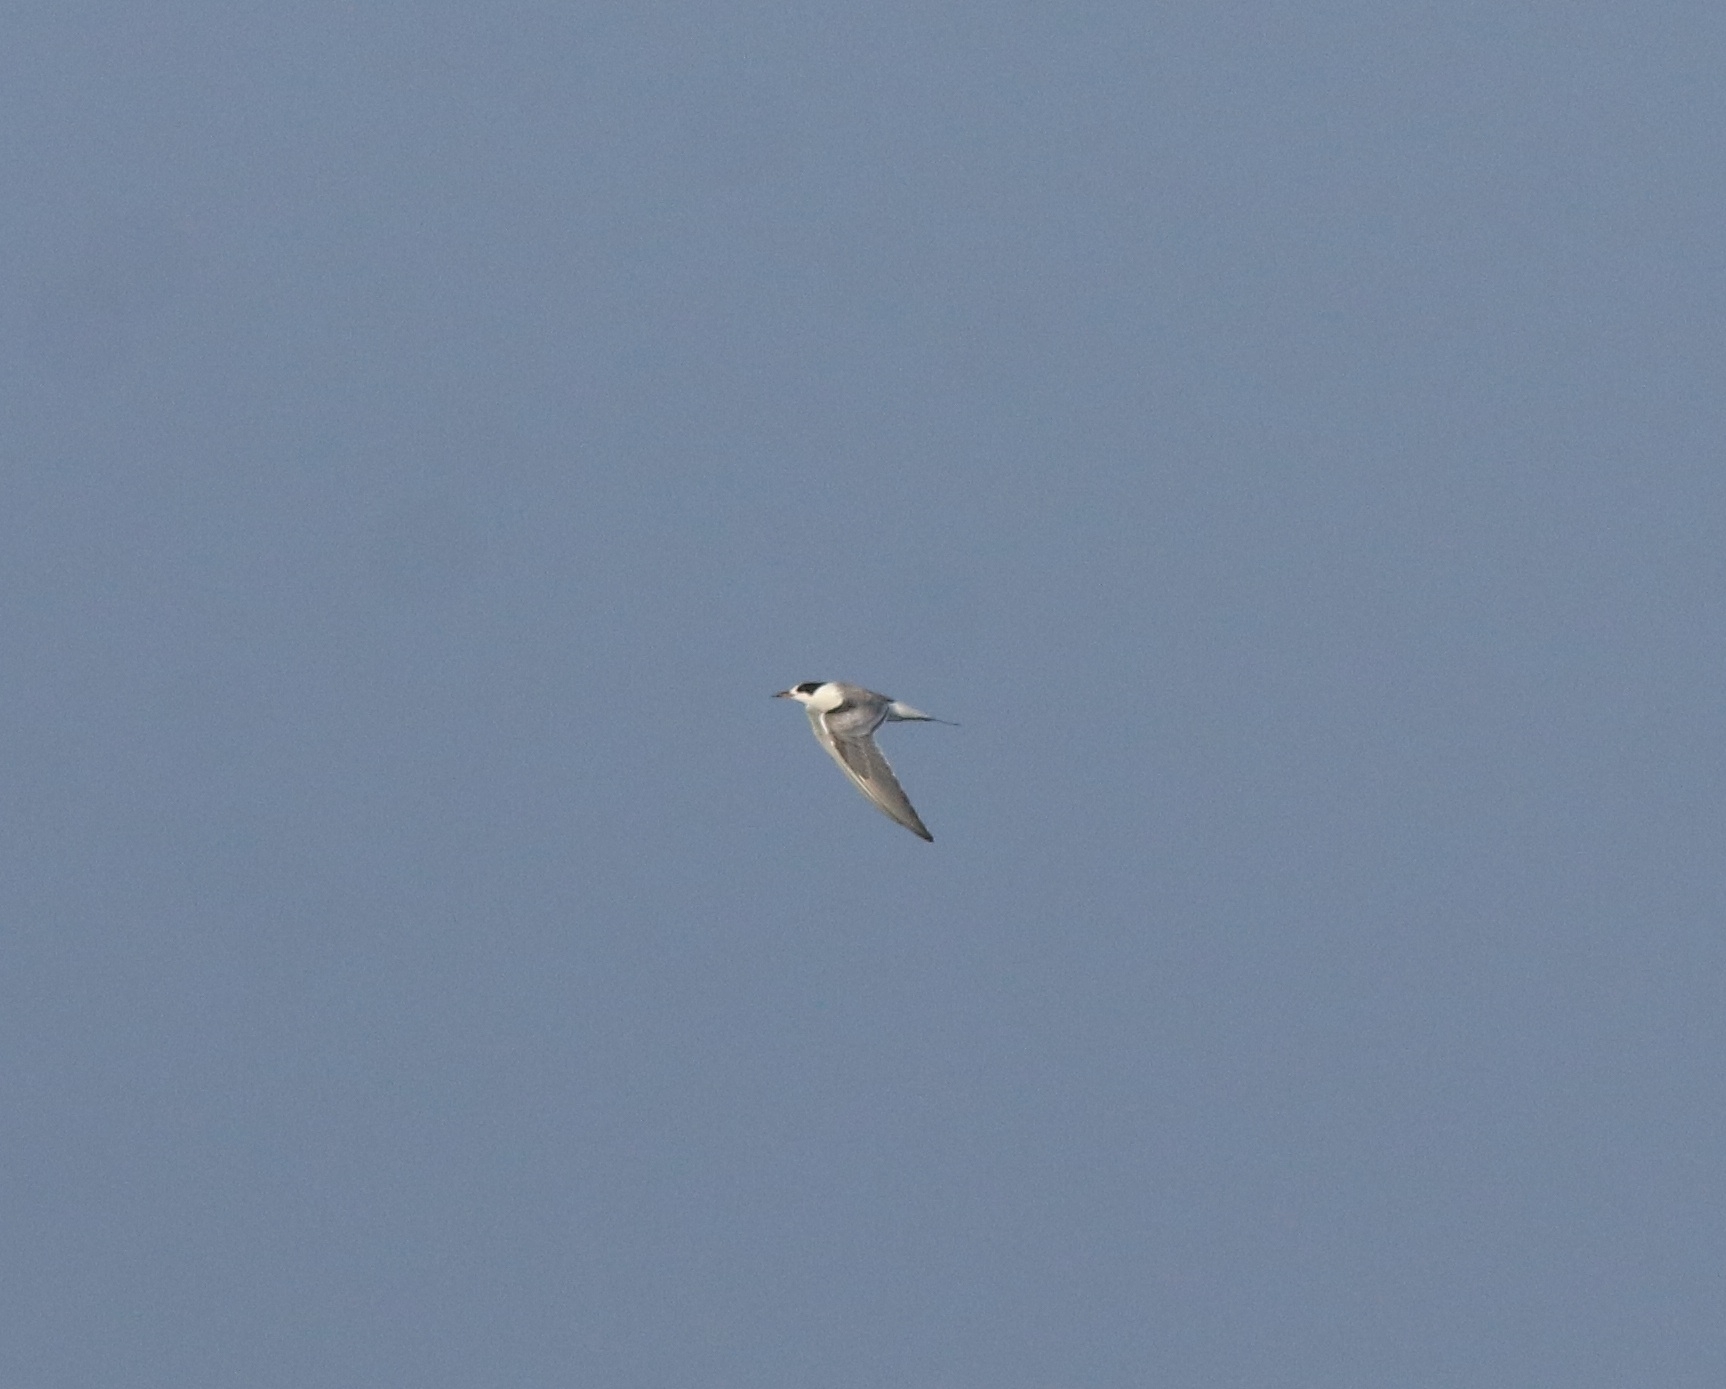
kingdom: Animalia
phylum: Chordata
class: Aves
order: Charadriiformes
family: Laridae
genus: Sterna
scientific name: Sterna hirundo
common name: Common tern
